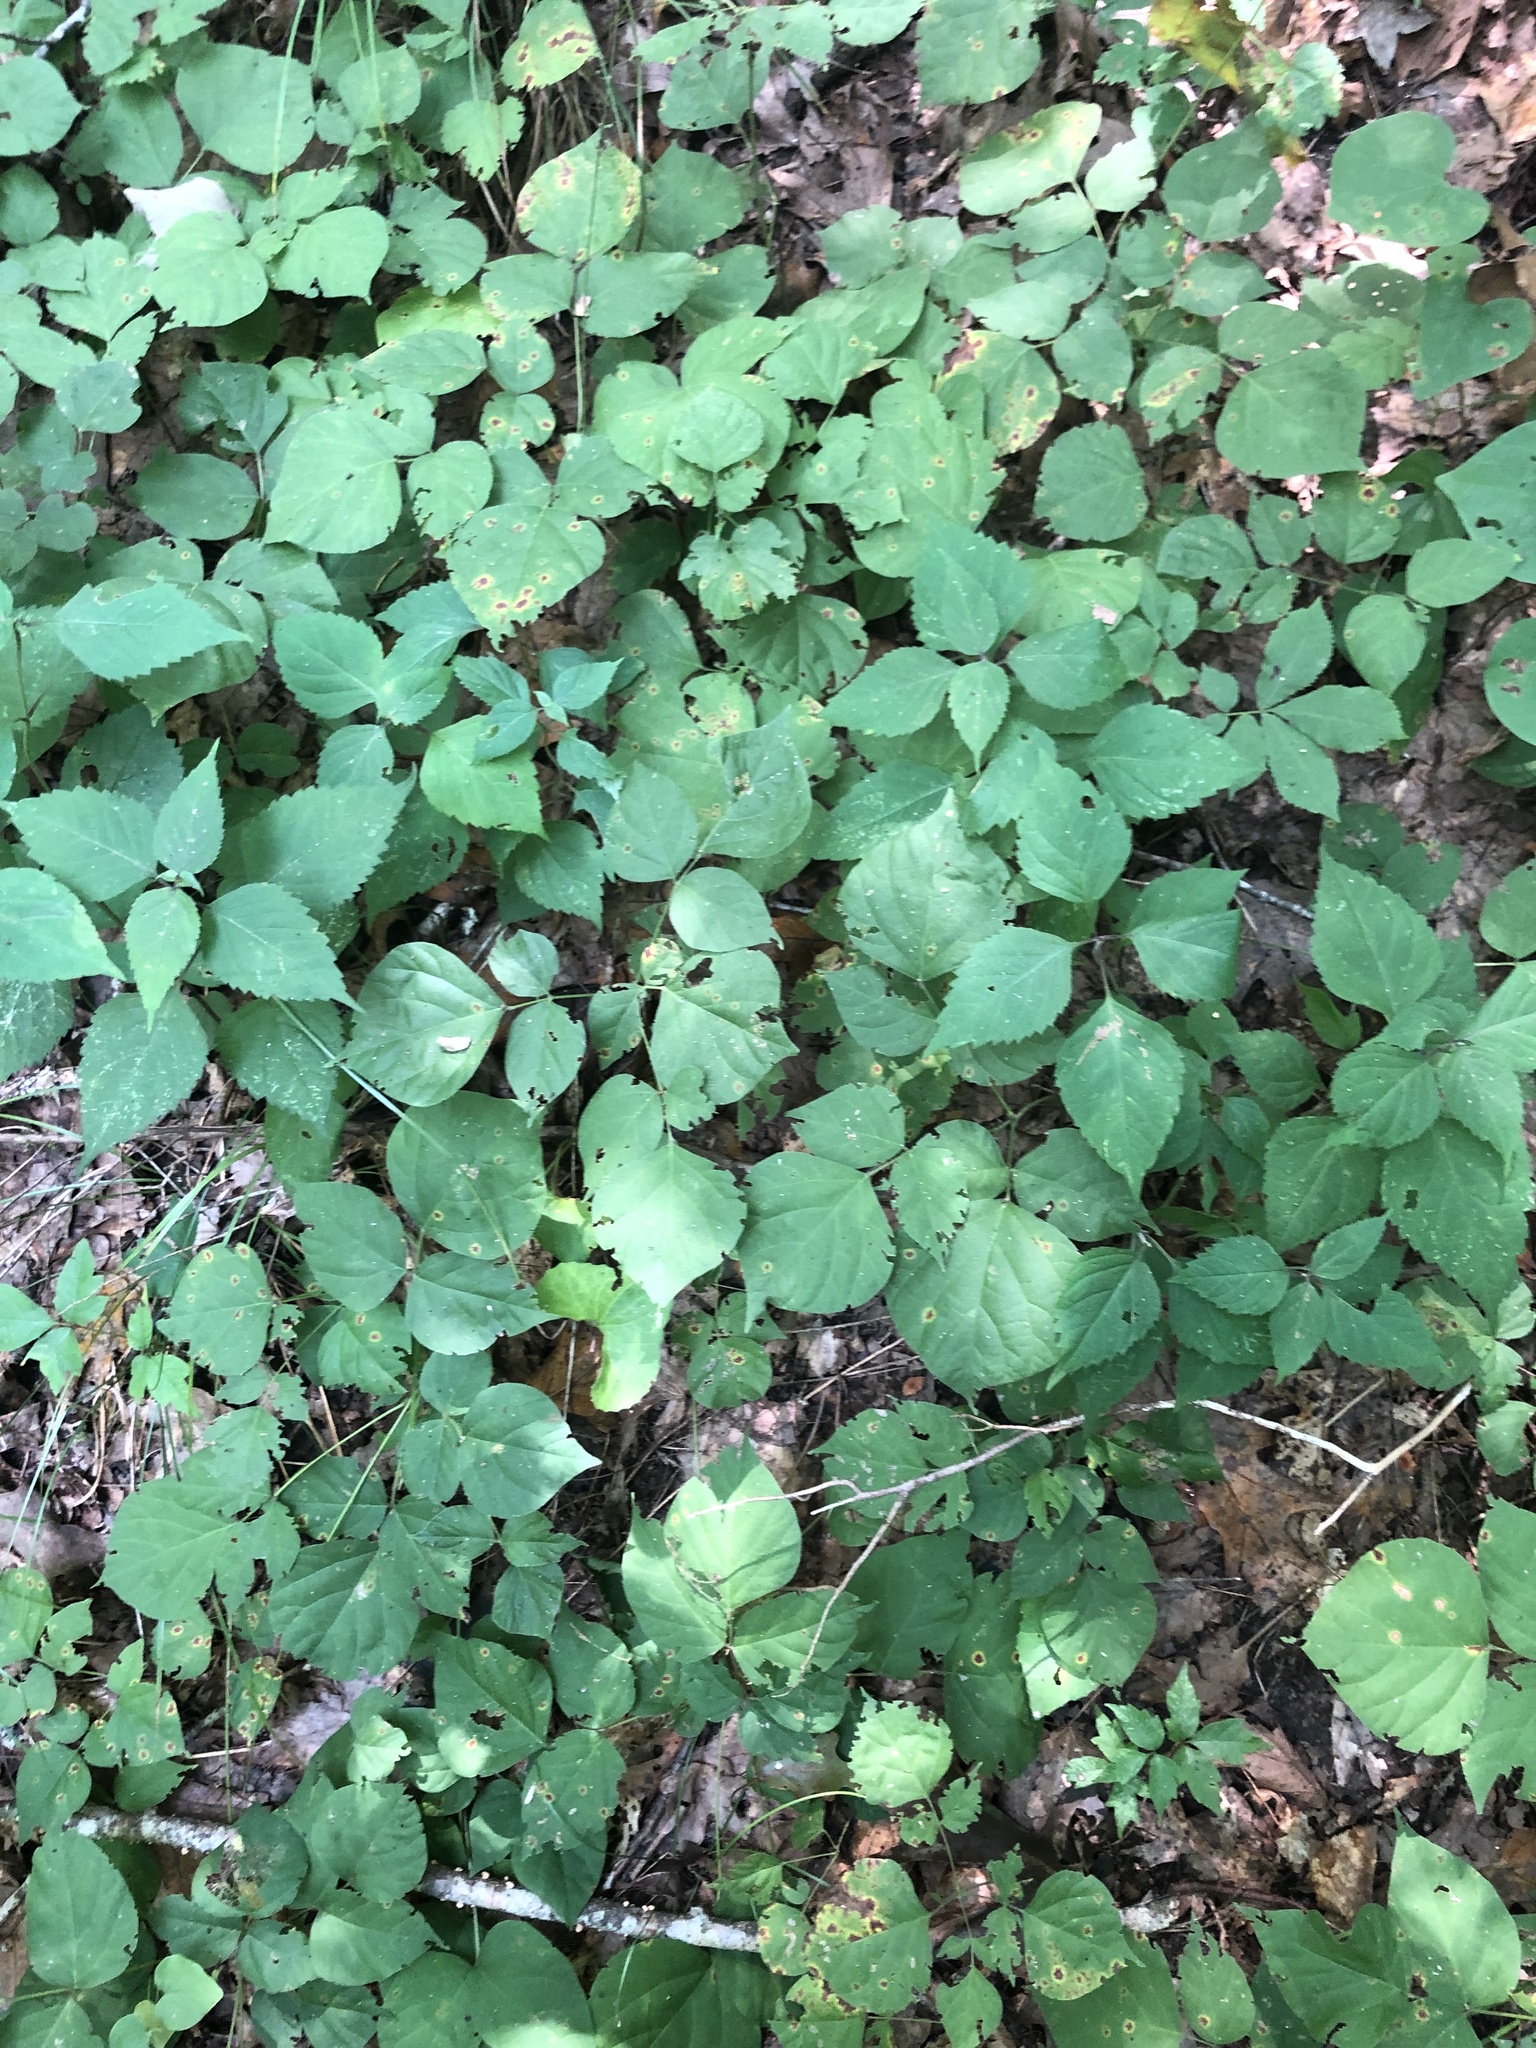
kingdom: Plantae
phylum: Tracheophyta
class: Magnoliopsida
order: Fabales
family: Fabaceae
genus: Hylodesmum
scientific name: Hylodesmum glutinosum
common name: Clustered-leaved tick-trefoil
